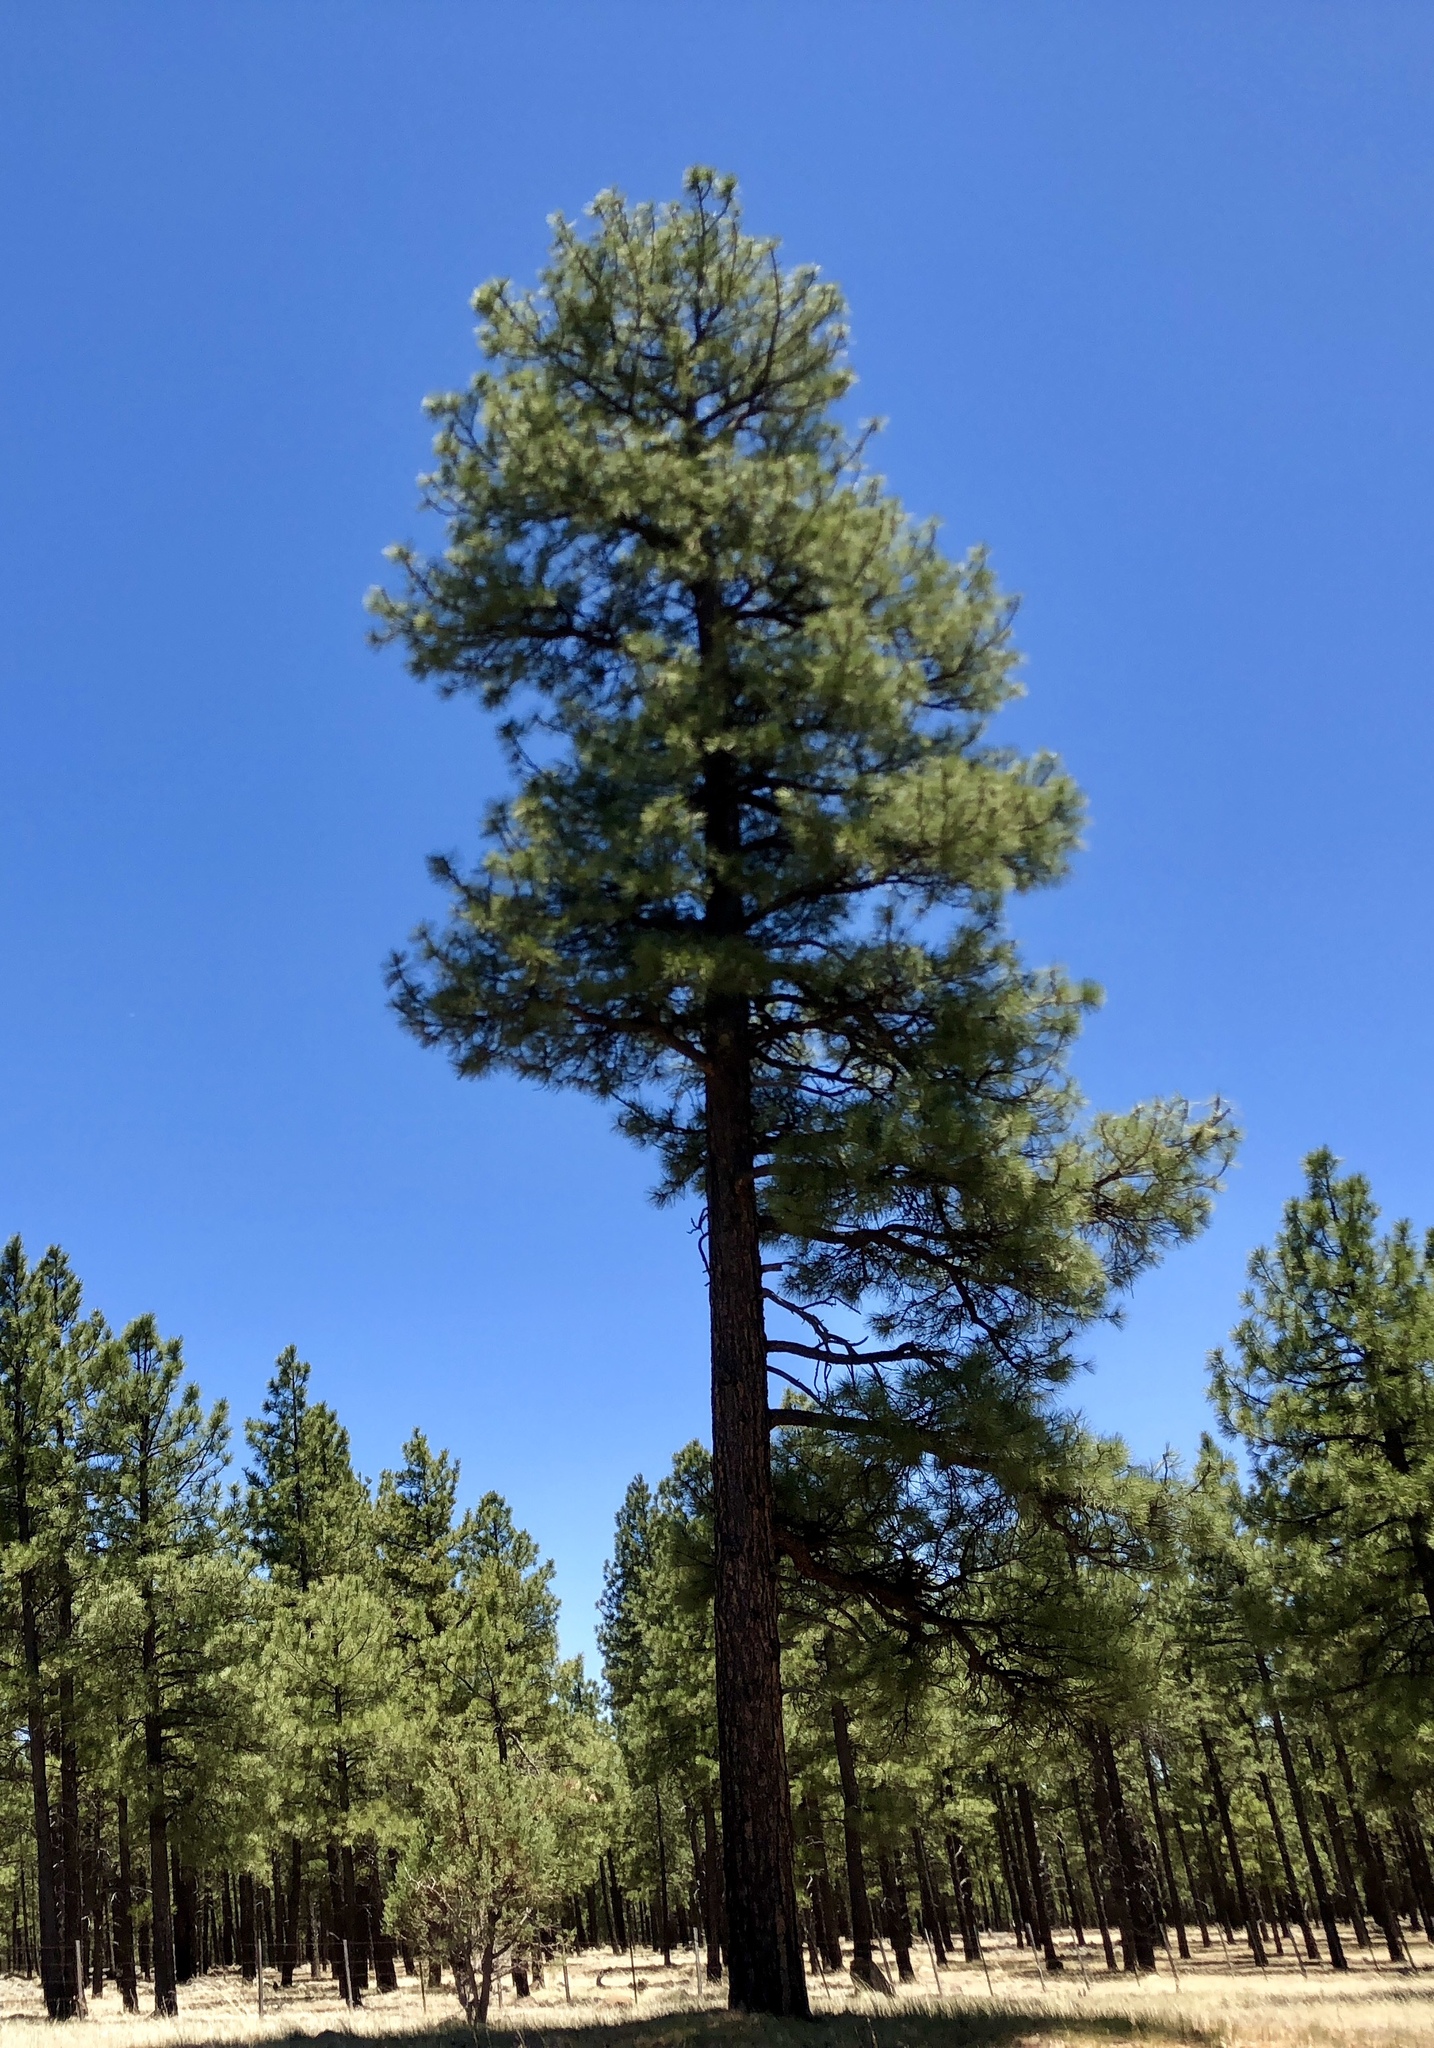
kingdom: Plantae
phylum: Tracheophyta
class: Pinopsida
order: Pinales
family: Pinaceae
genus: Pinus
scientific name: Pinus ponderosa
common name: Western yellow-pine
